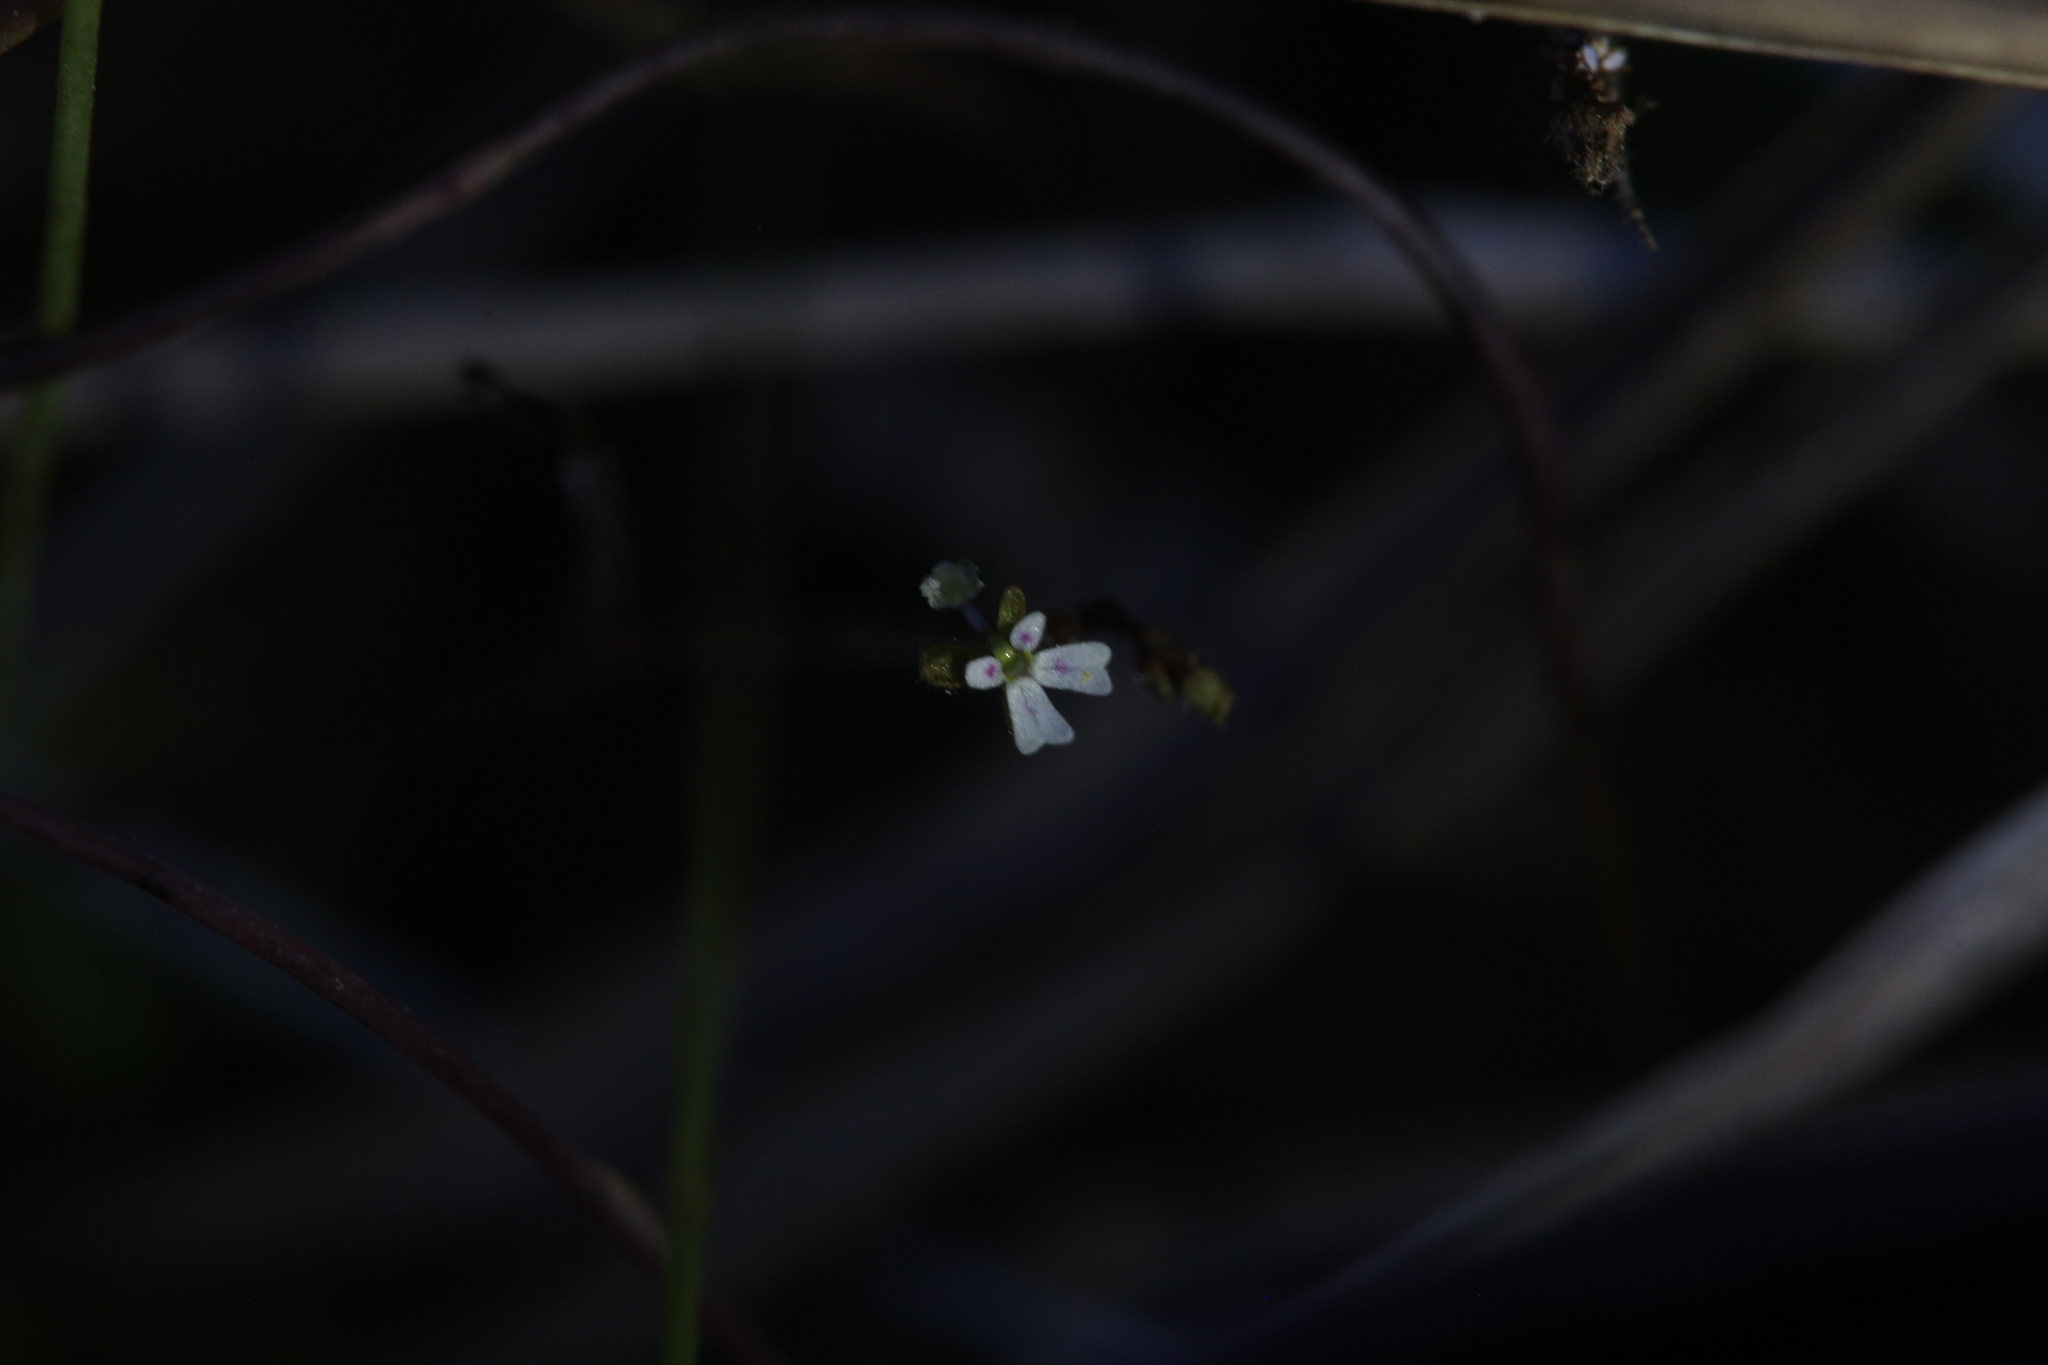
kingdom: Plantae
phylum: Tracheophyta
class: Magnoliopsida
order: Asterales
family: Stylidiaceae
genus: Stylidium
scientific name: Stylidium tenerum
